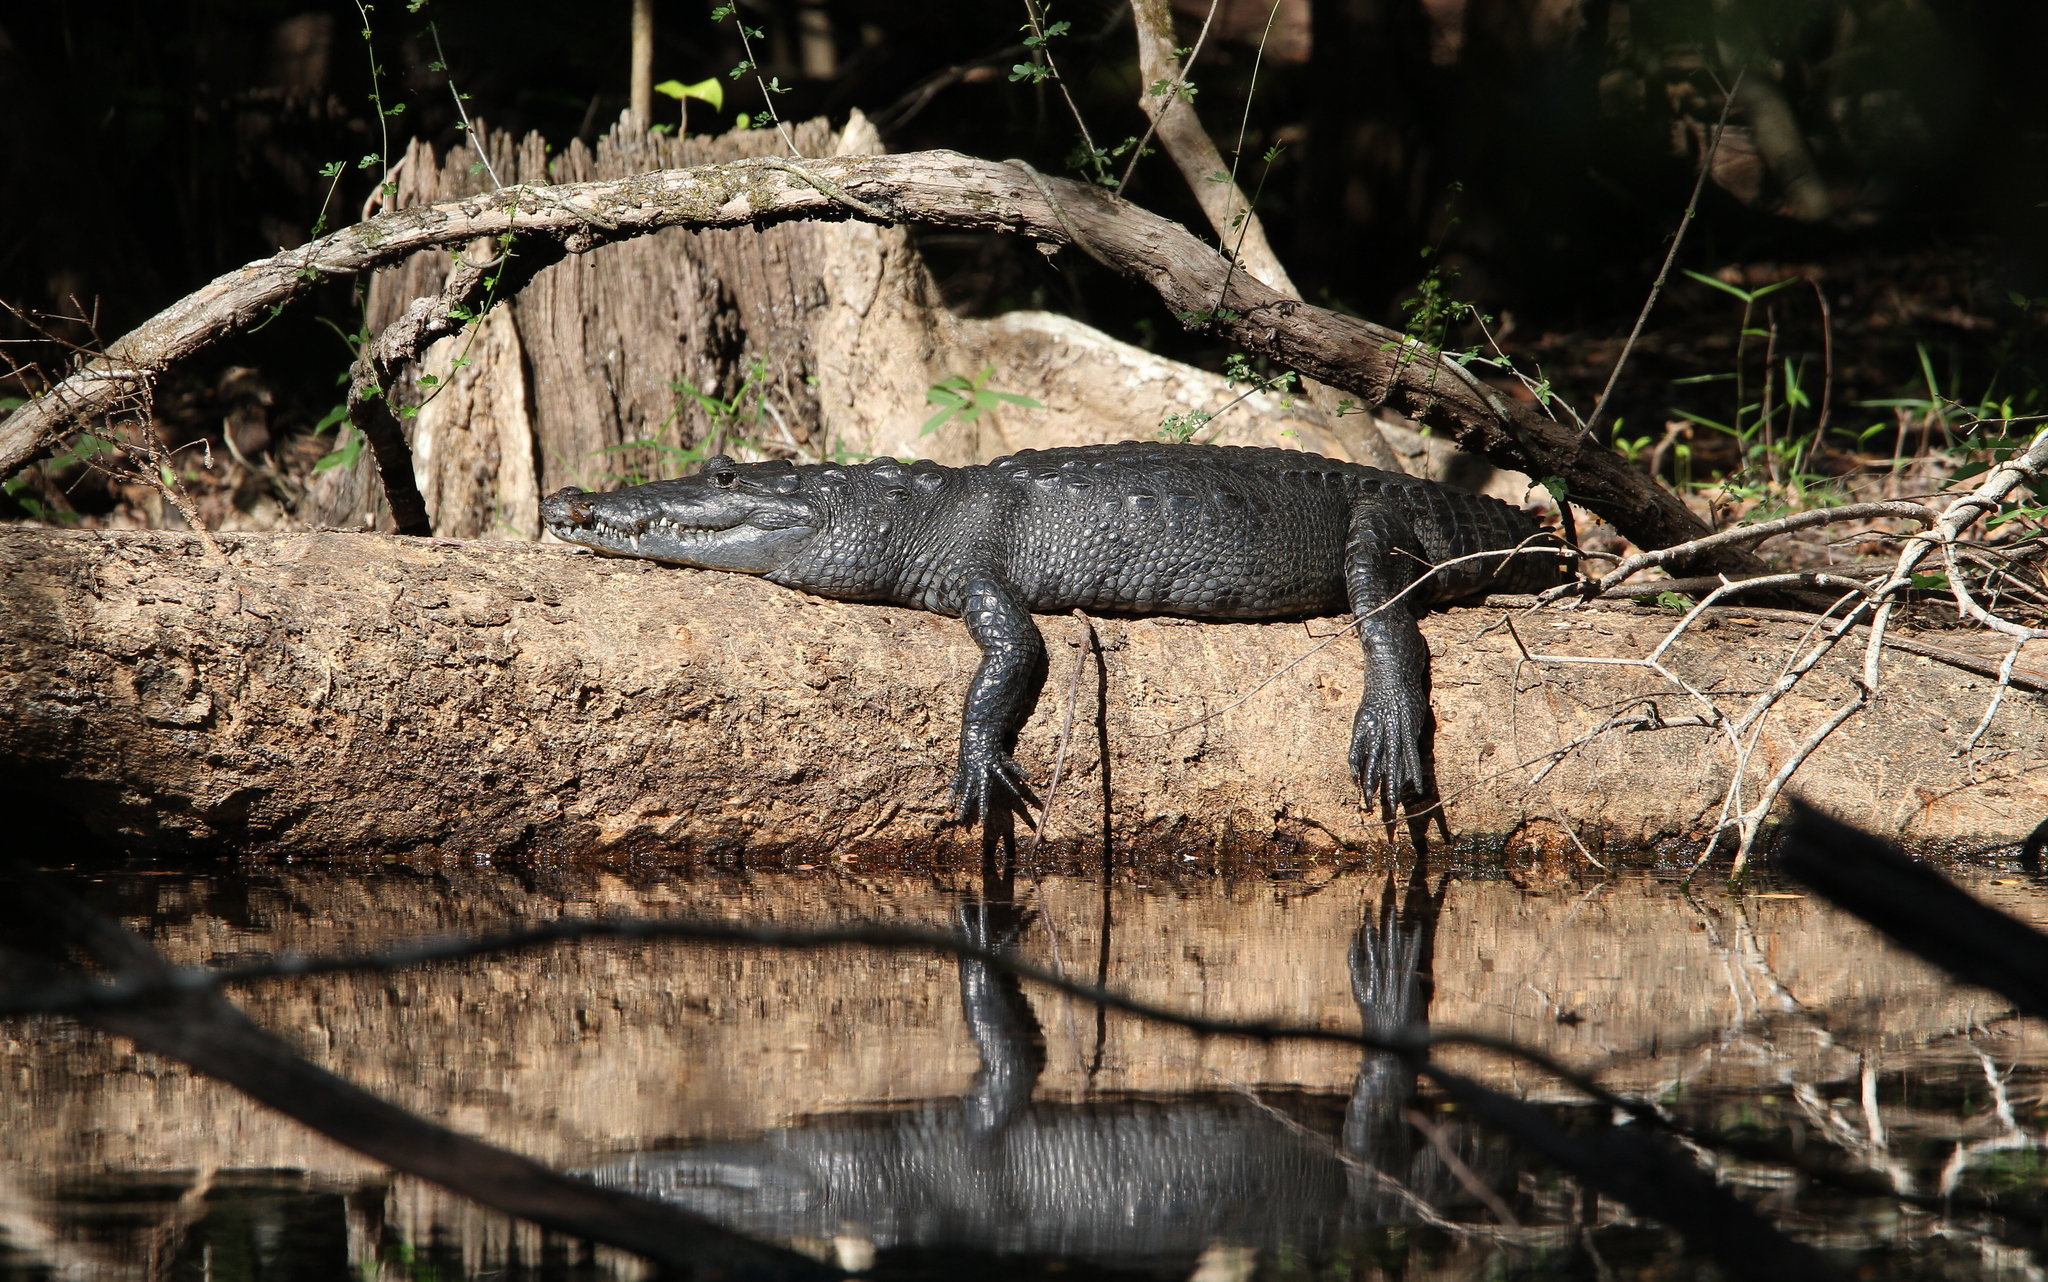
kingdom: Animalia
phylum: Chordata
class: Crocodylia
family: Crocodylidae
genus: Crocodylus
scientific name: Crocodylus moreletii
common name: Morelet's crocodile
